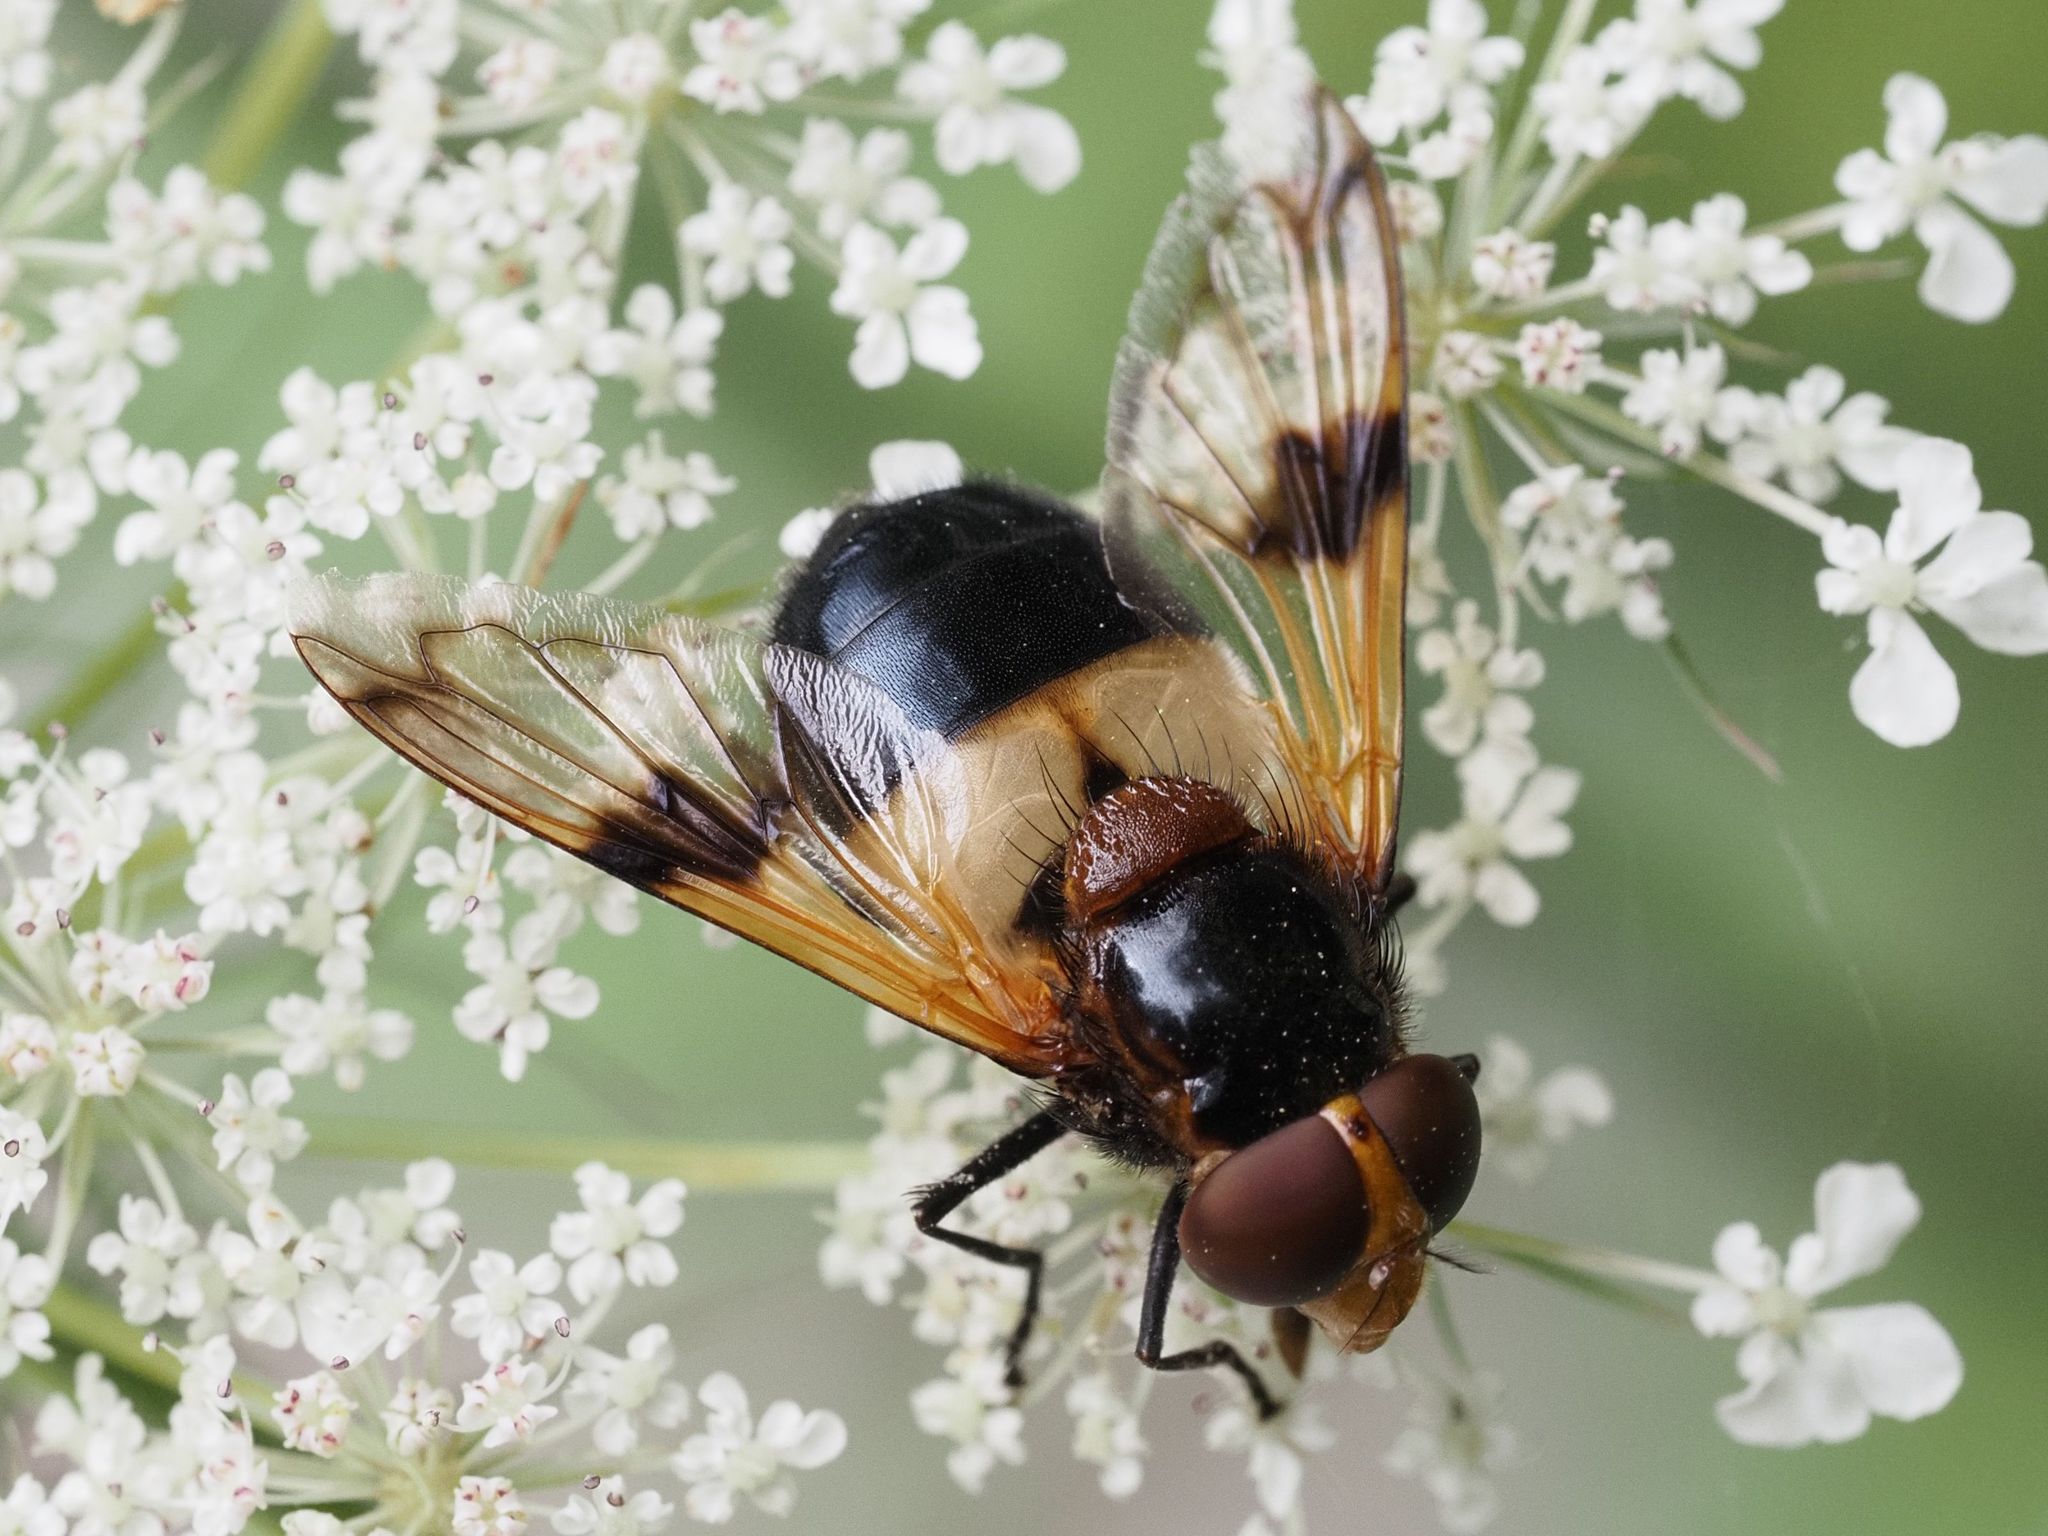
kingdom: Animalia
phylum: Arthropoda
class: Insecta
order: Diptera
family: Syrphidae
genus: Volucella
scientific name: Volucella pellucens
